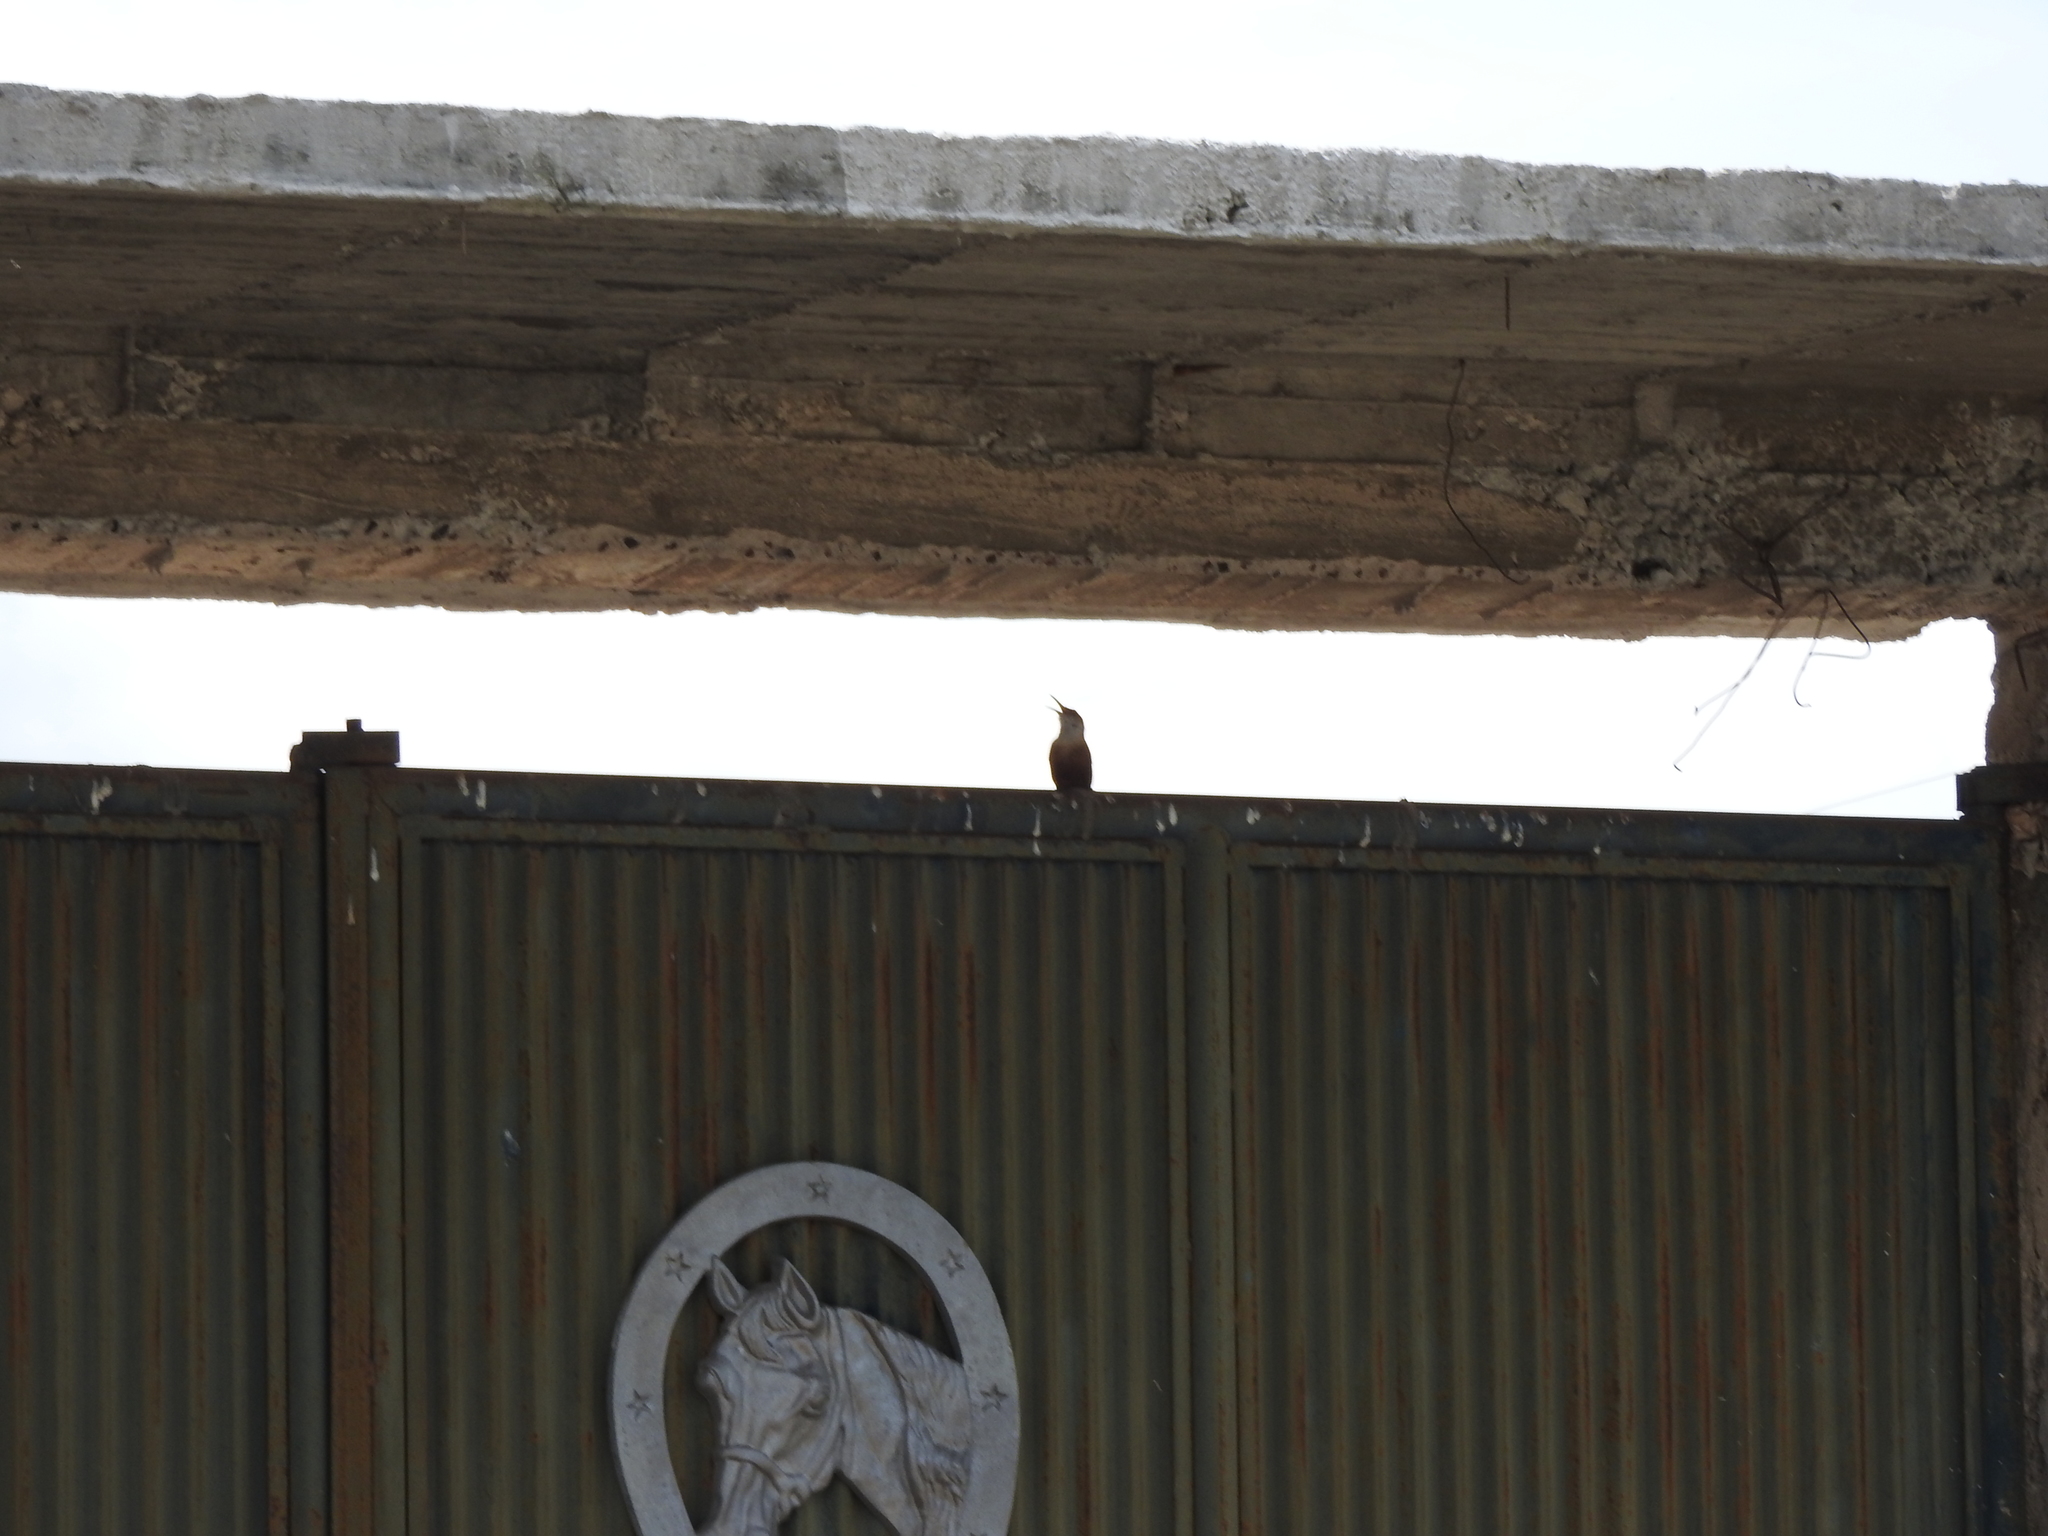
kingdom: Animalia
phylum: Chordata
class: Aves
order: Passeriformes
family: Troglodytidae
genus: Catherpes
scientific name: Catherpes mexicanus
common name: Canyon wren
